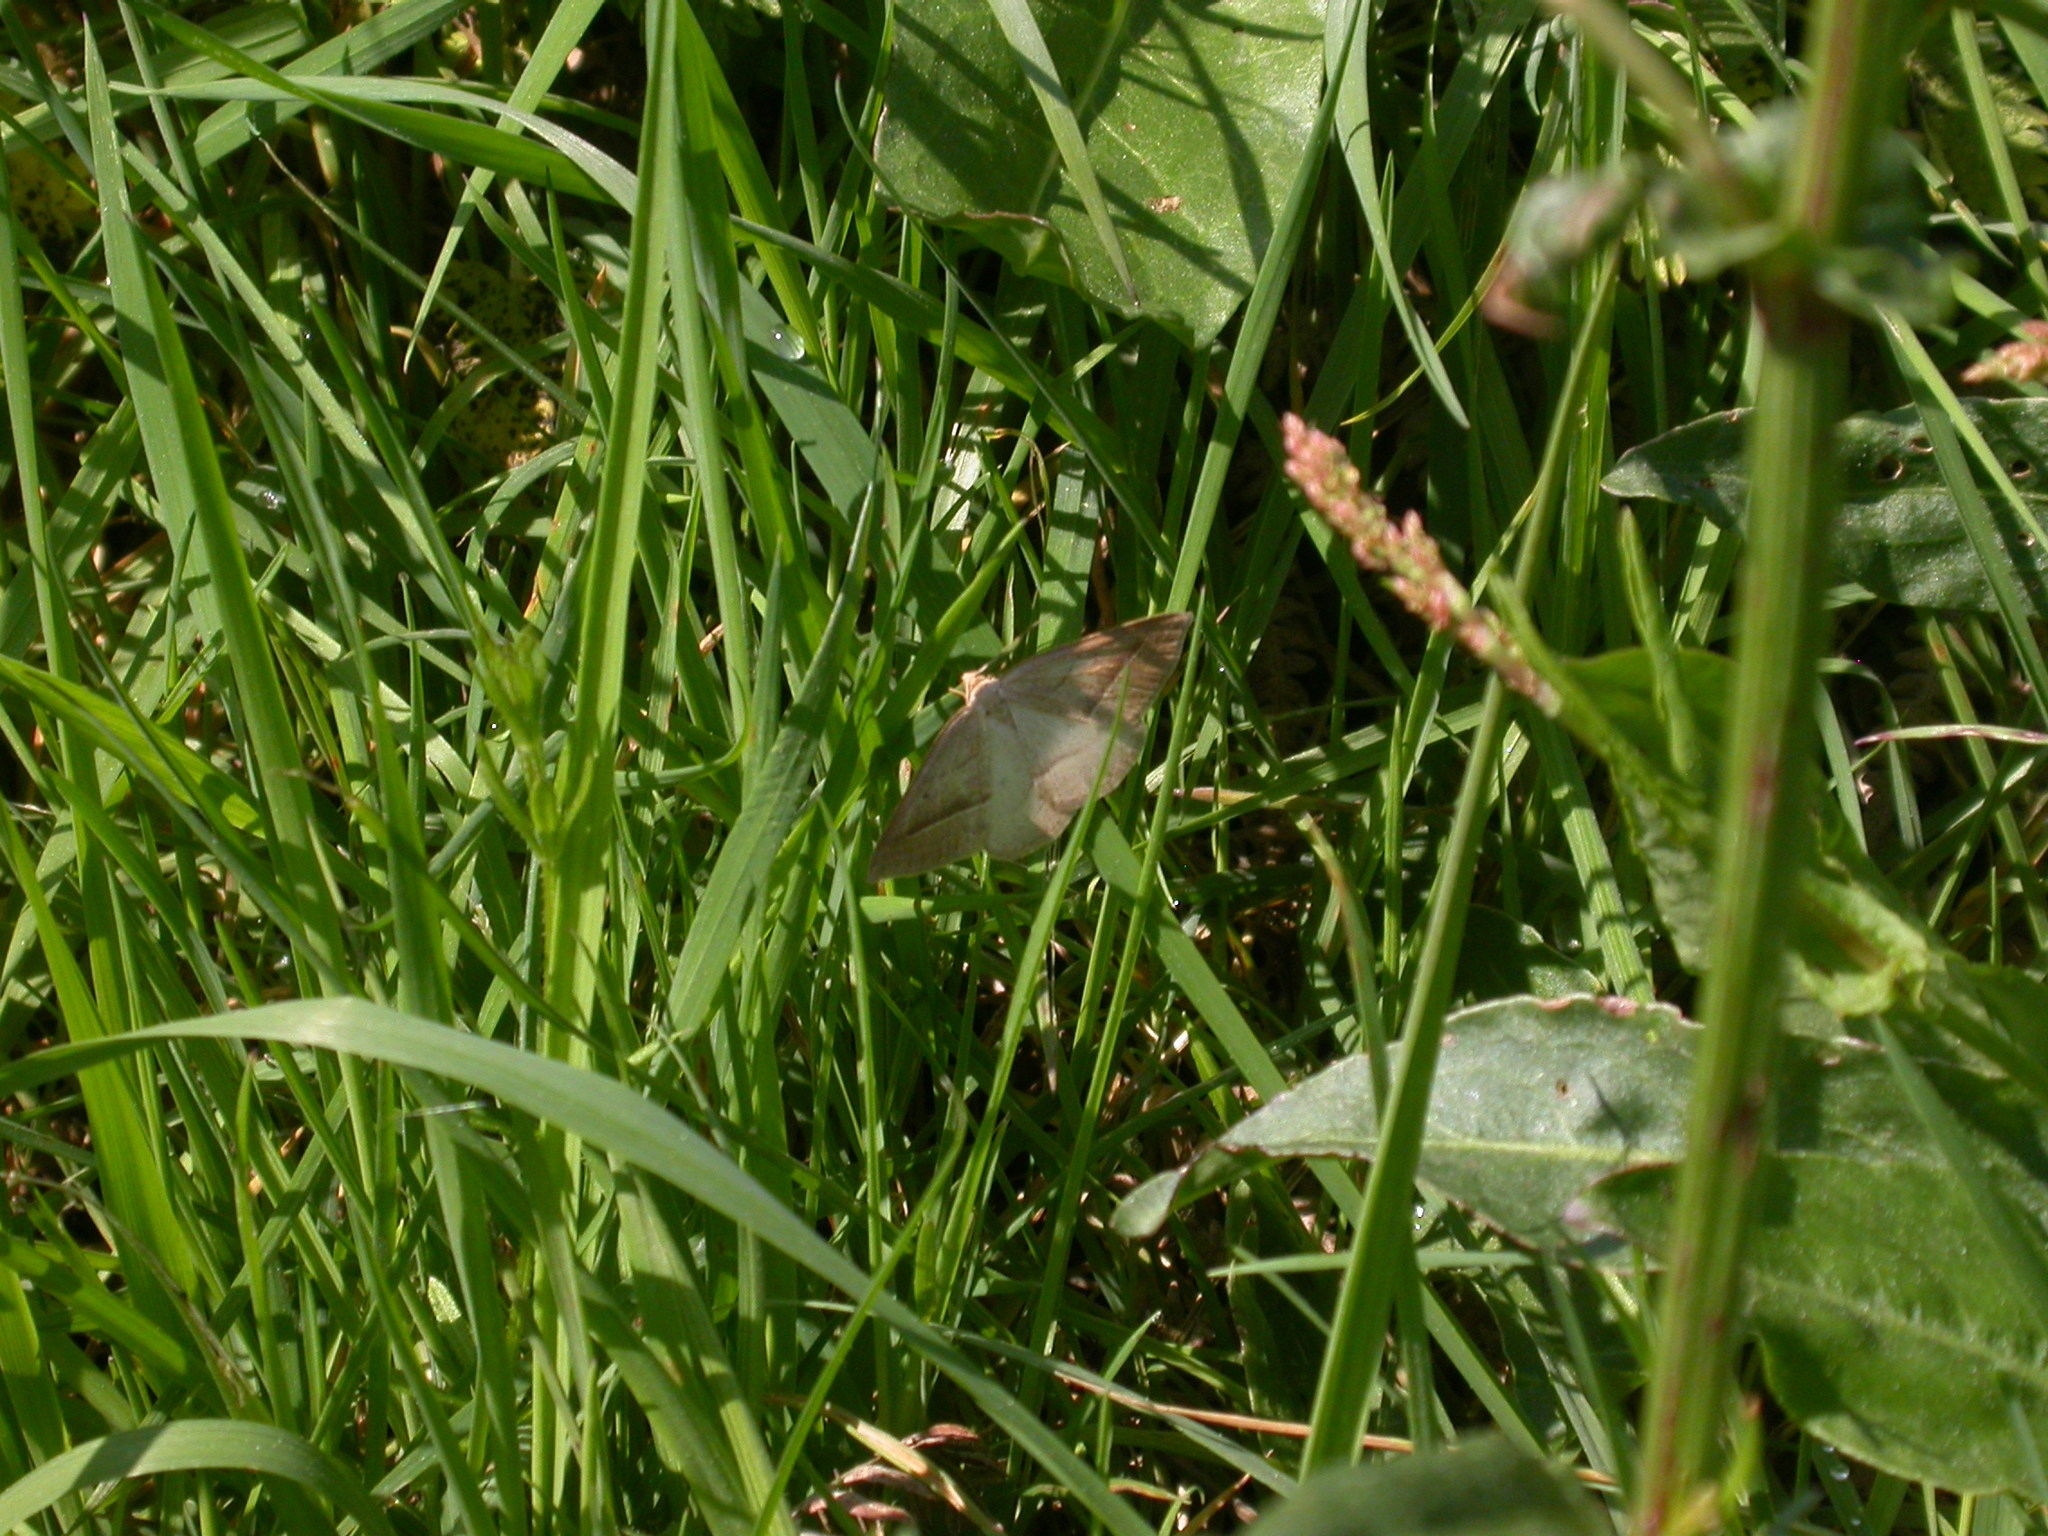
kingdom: Animalia
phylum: Arthropoda
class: Insecta
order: Lepidoptera
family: Pterophoridae
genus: Pterophorus
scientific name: Pterophorus Petrophora chlorosata
